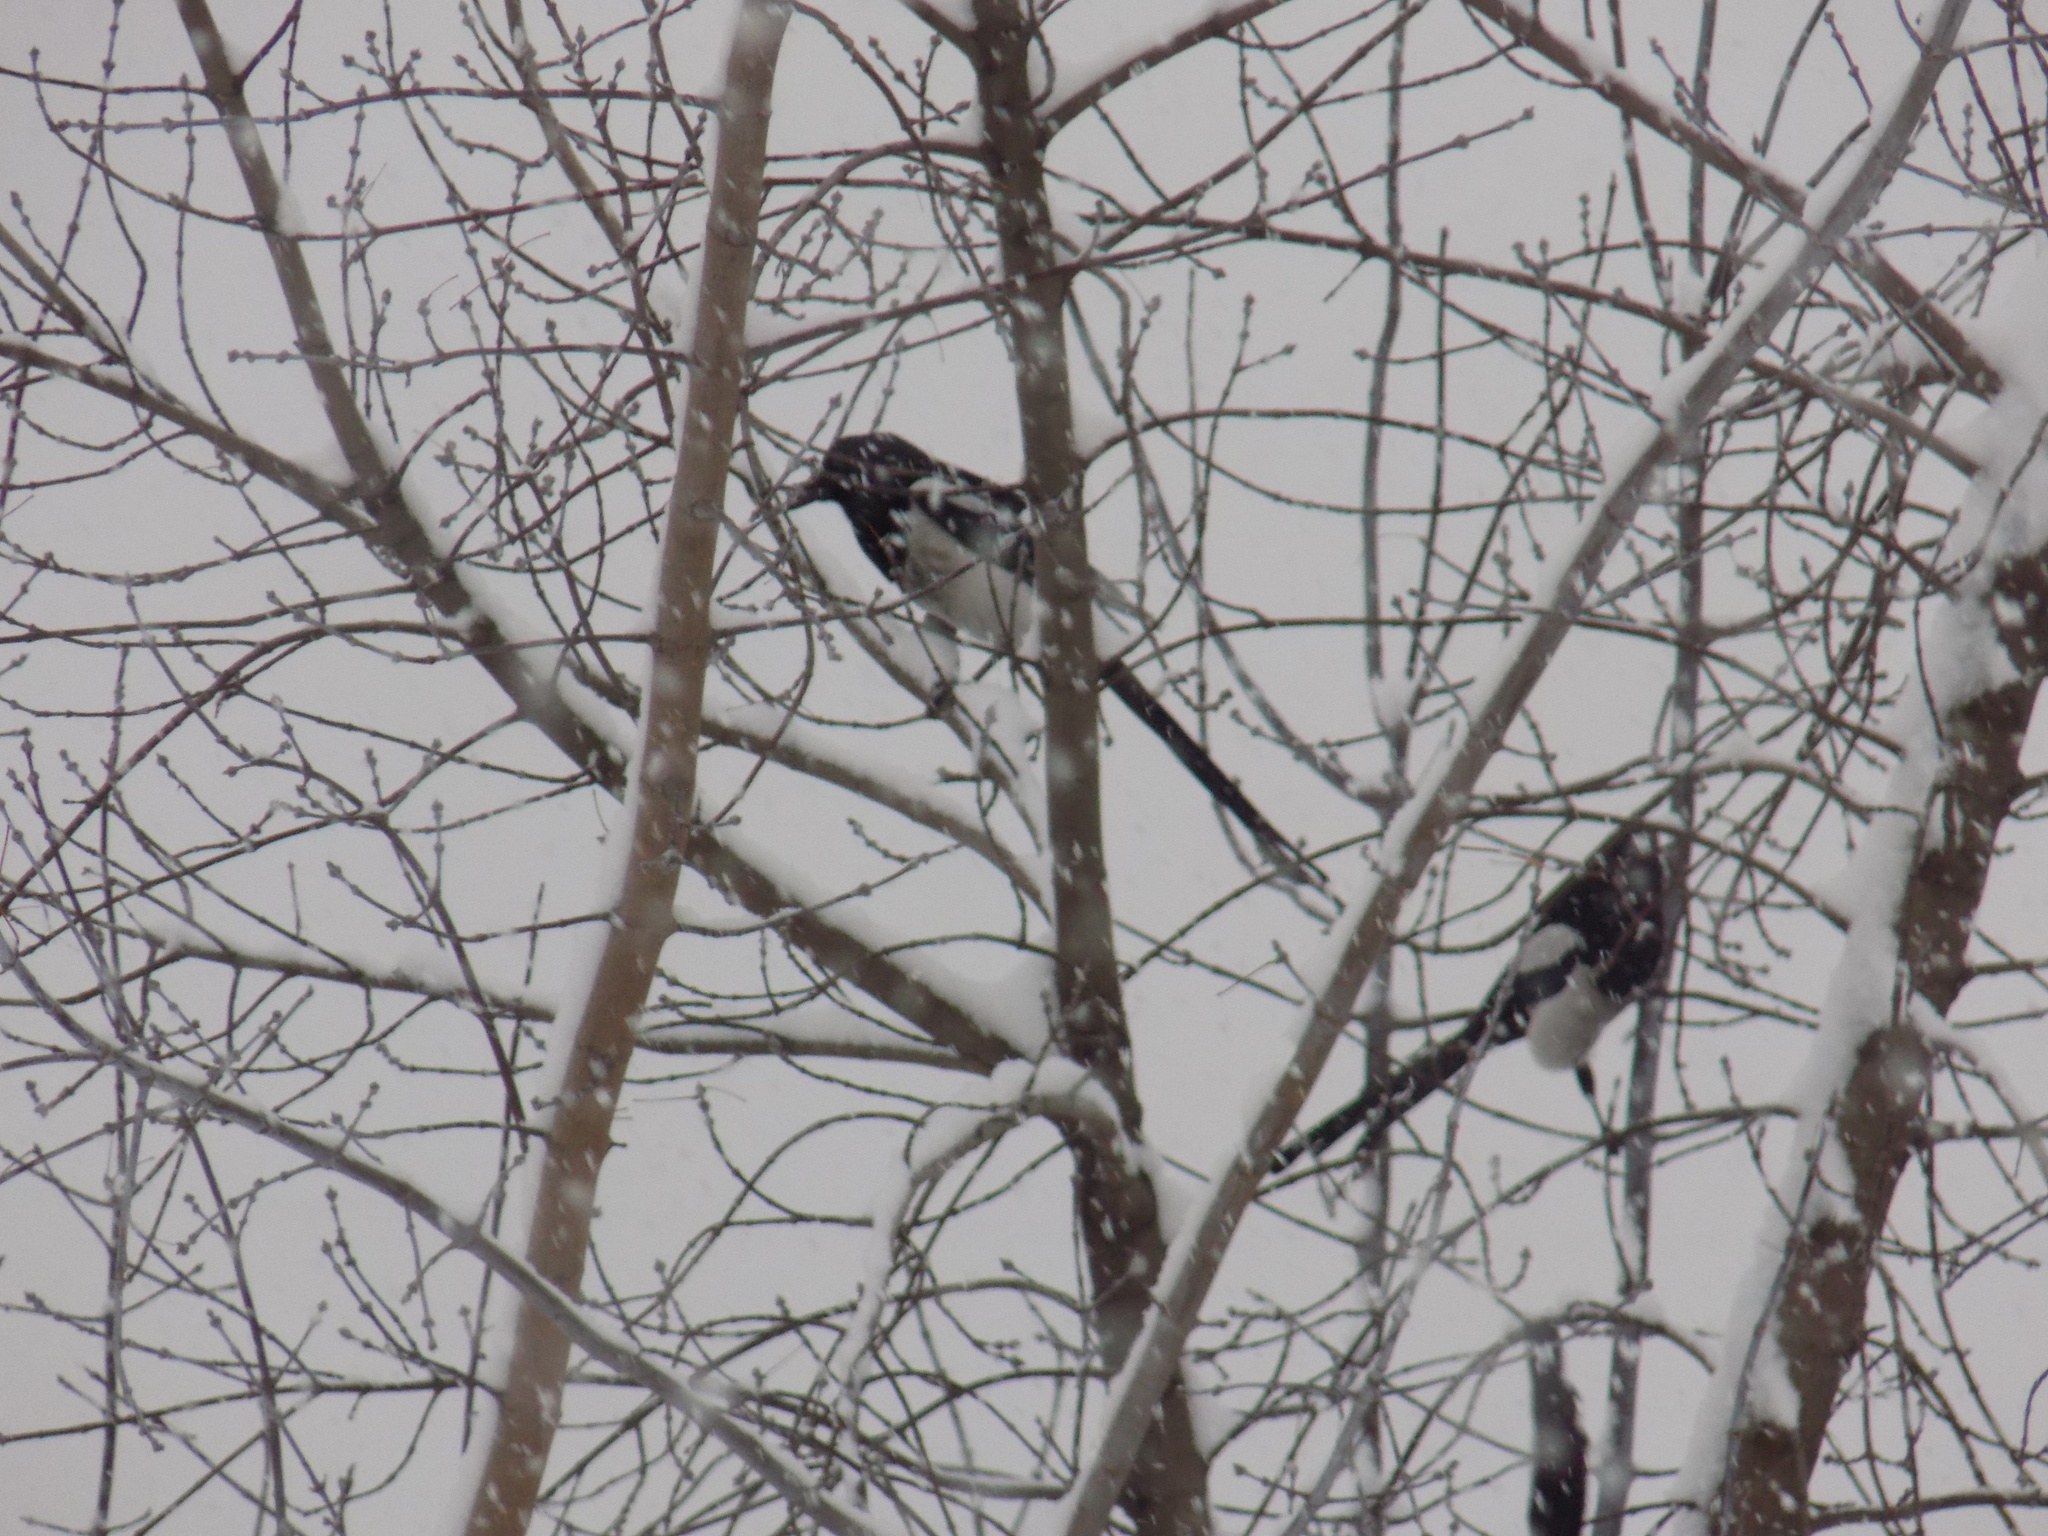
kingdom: Animalia
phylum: Chordata
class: Aves
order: Passeriformes
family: Corvidae
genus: Pica
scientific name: Pica pica
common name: Eurasian magpie
